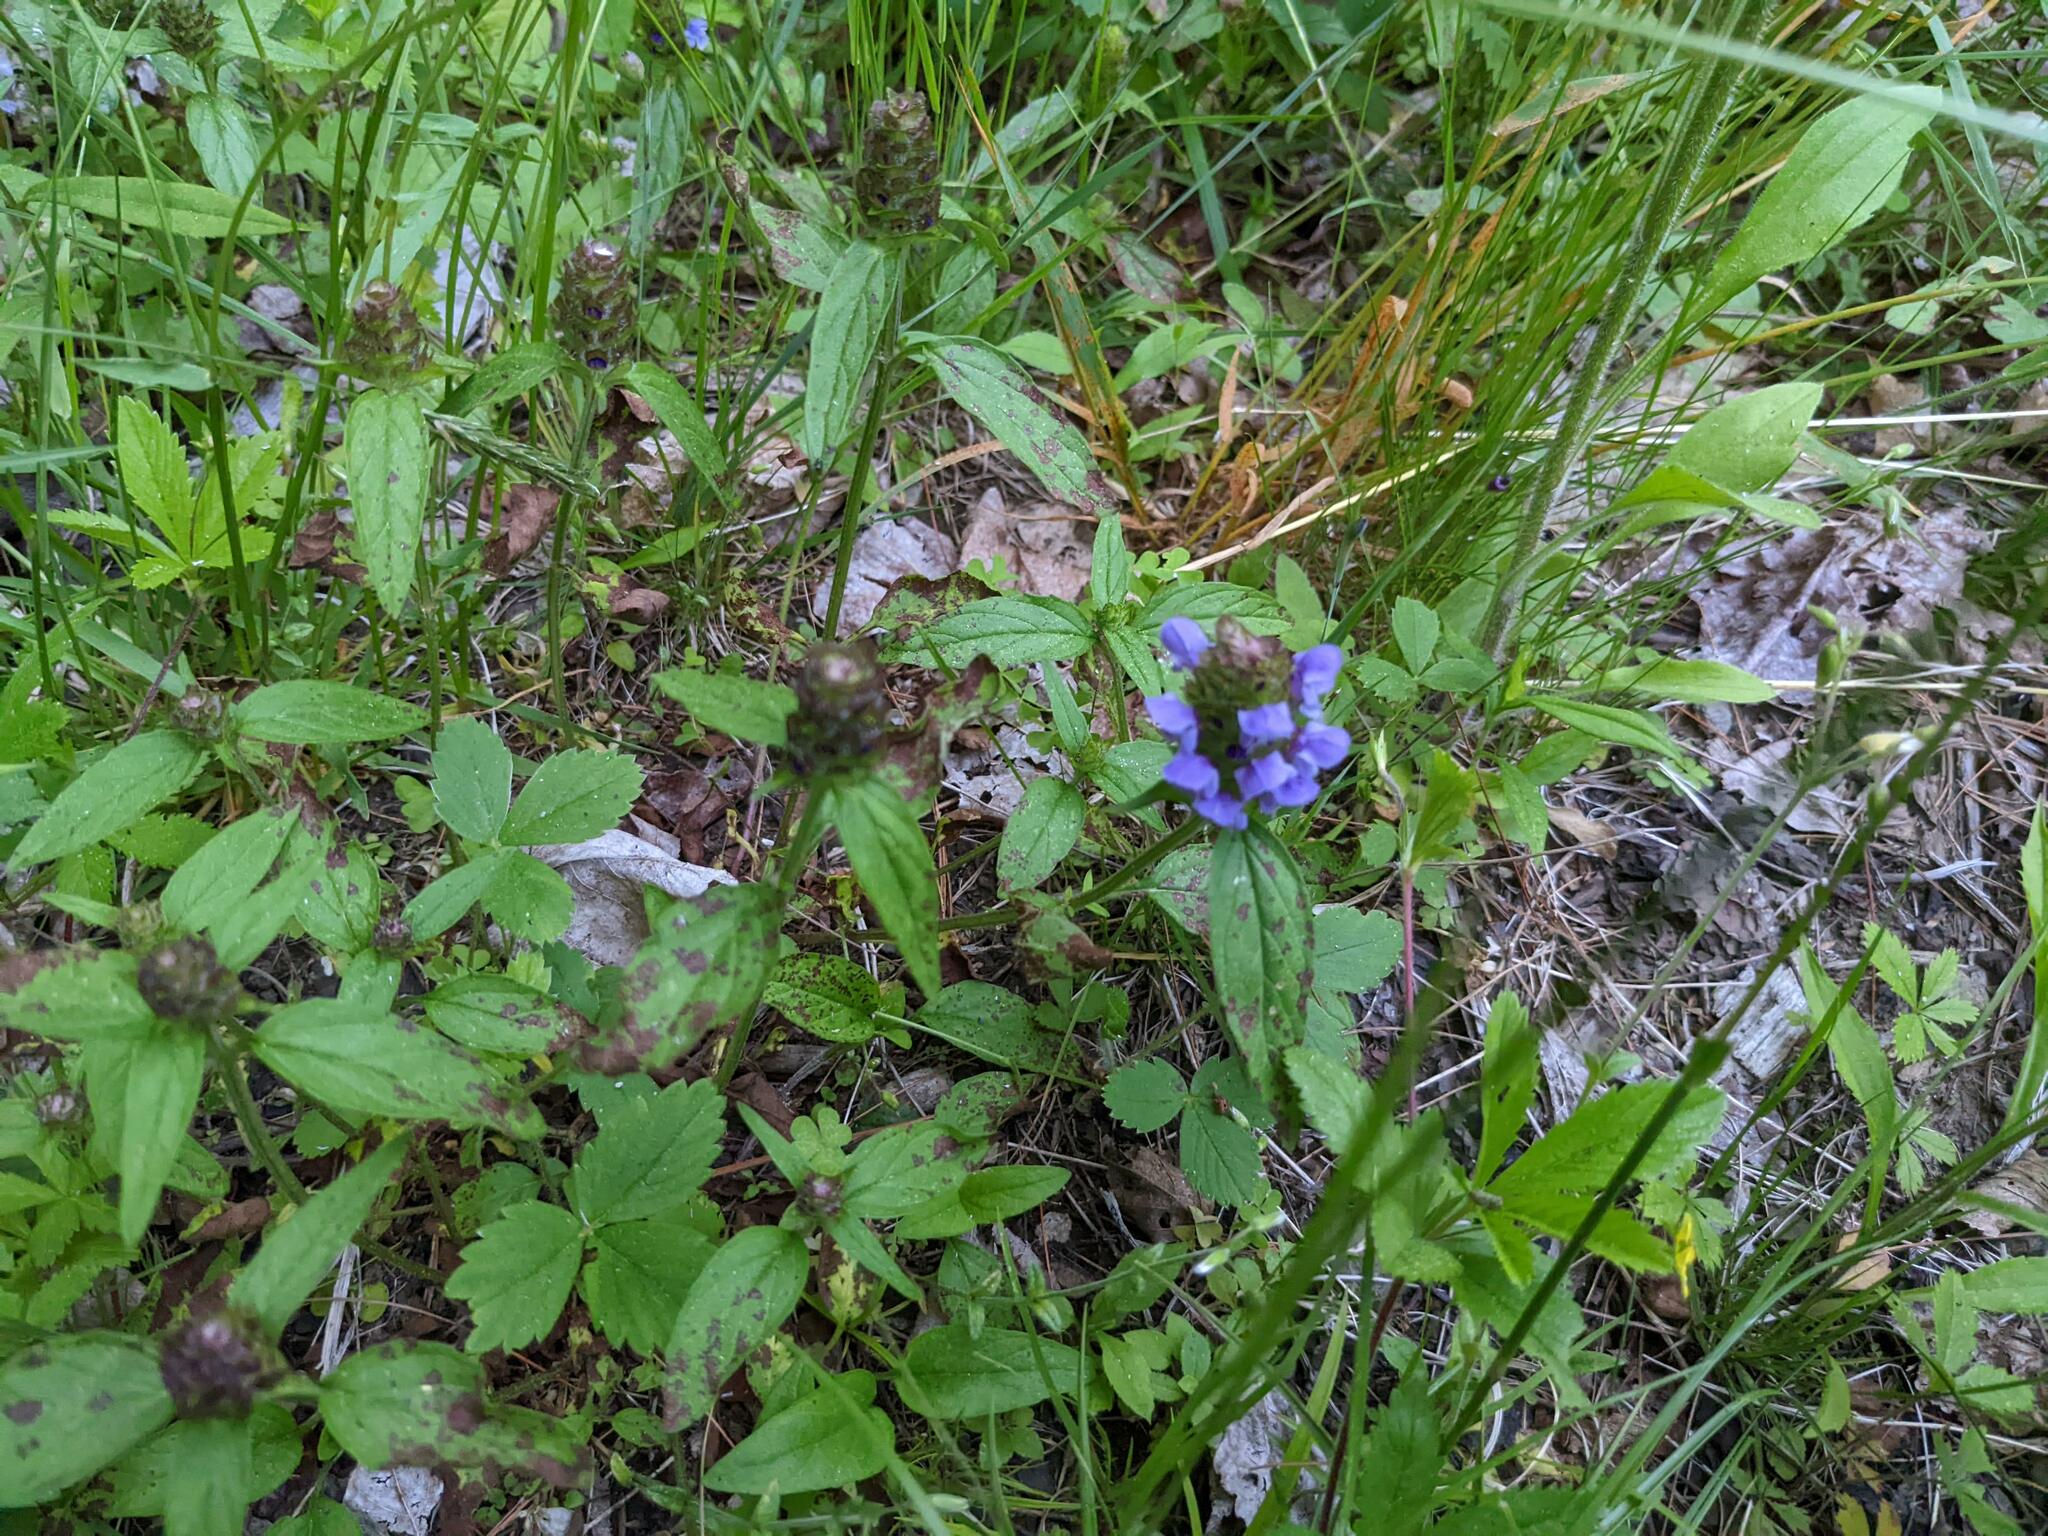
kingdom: Plantae
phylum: Tracheophyta
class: Magnoliopsida
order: Lamiales
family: Lamiaceae
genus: Prunella
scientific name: Prunella vulgaris
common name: Heal-all
